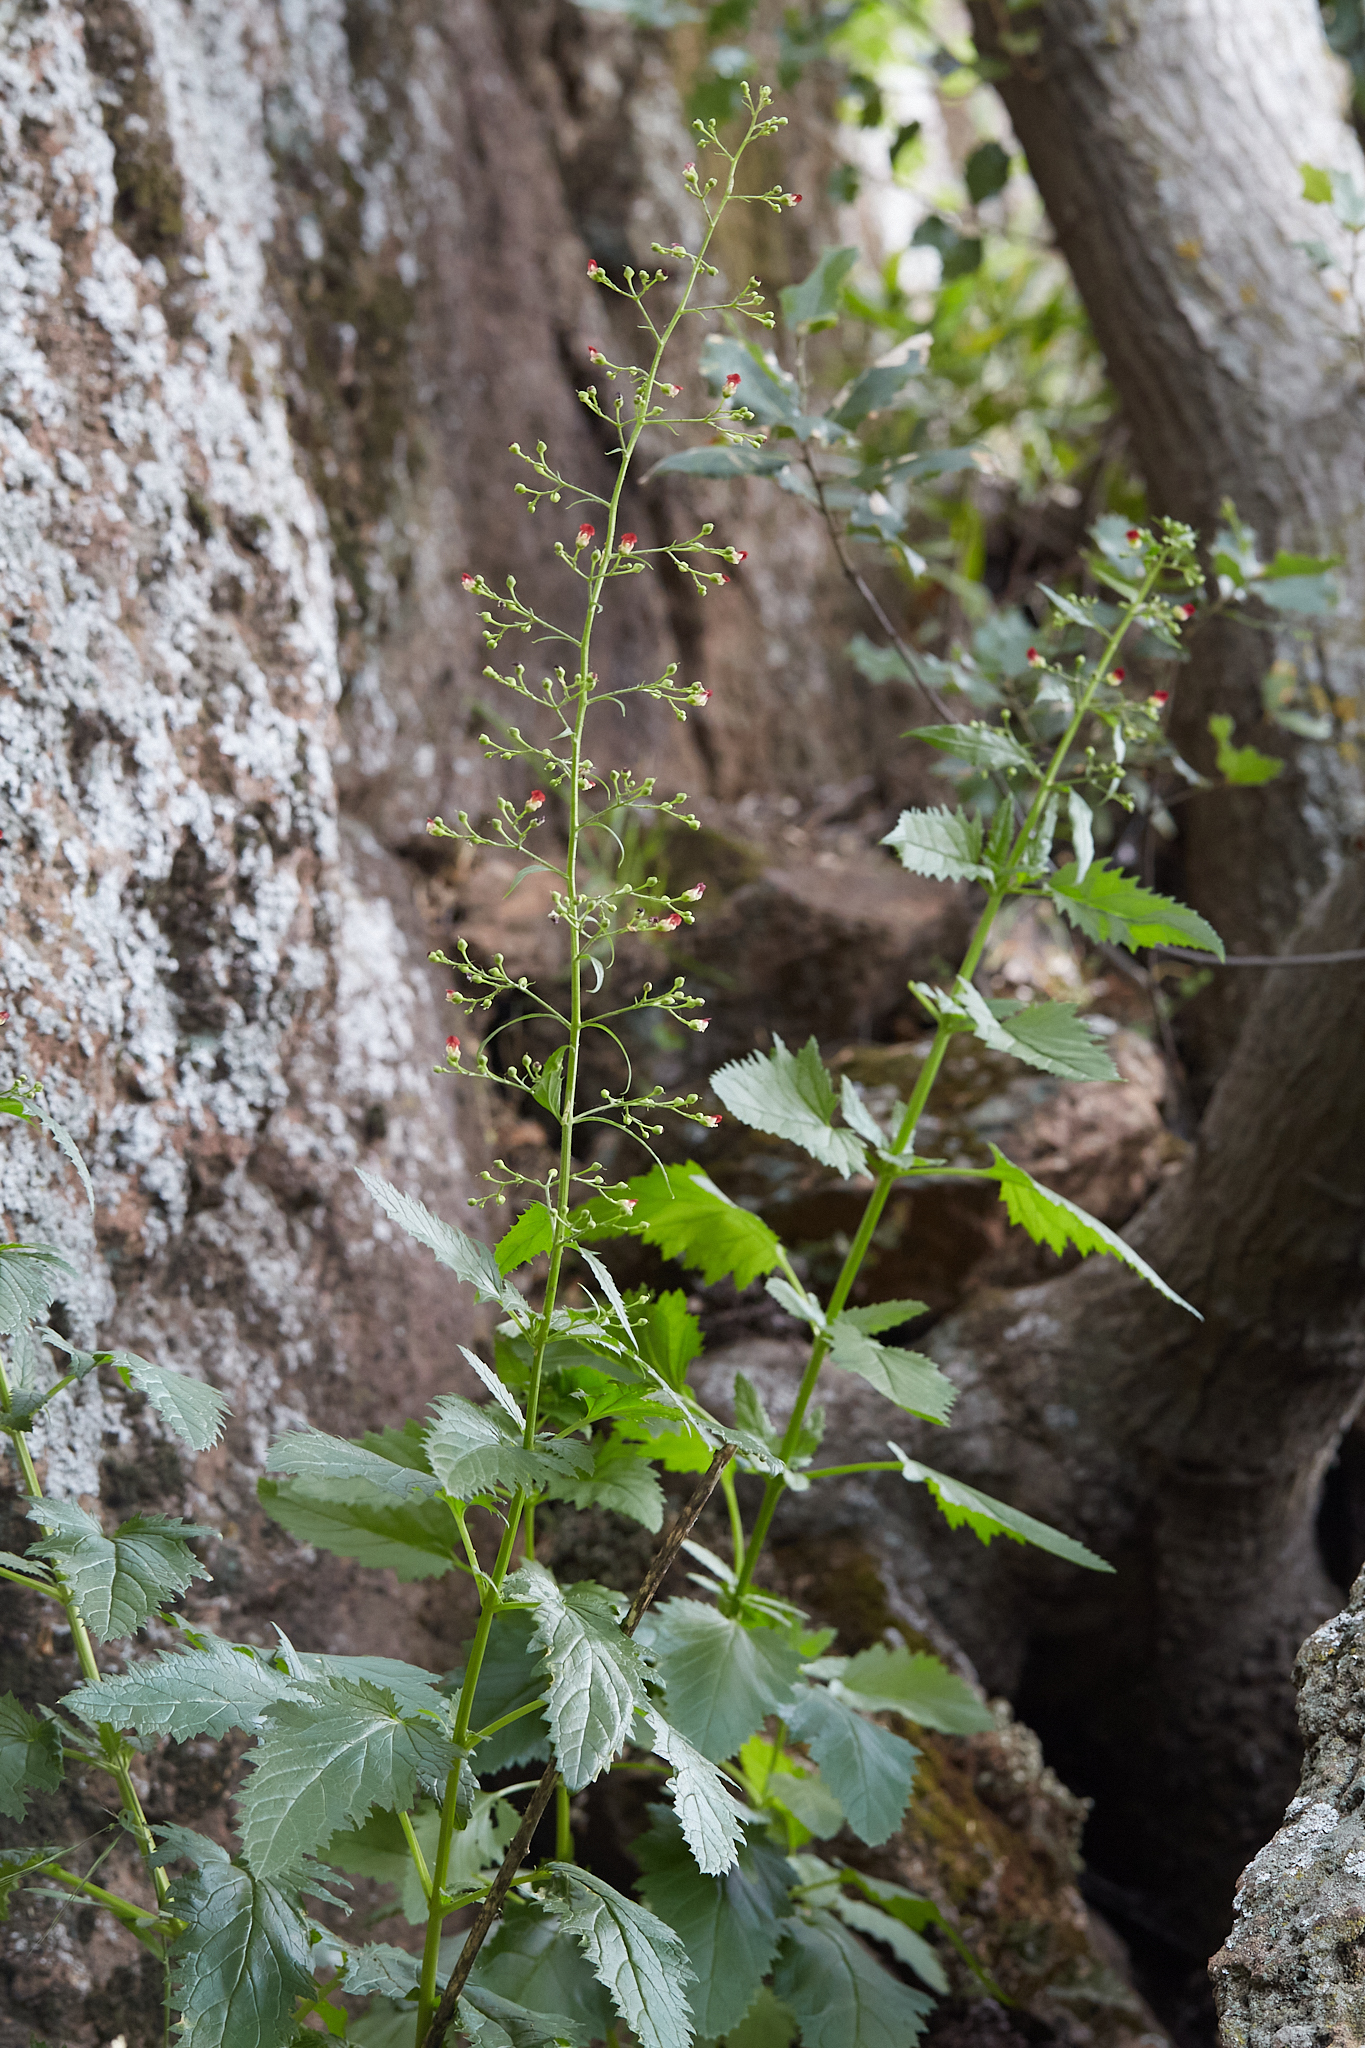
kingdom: Plantae
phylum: Tracheophyta
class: Magnoliopsida
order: Lamiales
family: Scrophulariaceae
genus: Scrophularia
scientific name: Scrophularia californica
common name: California figwort
